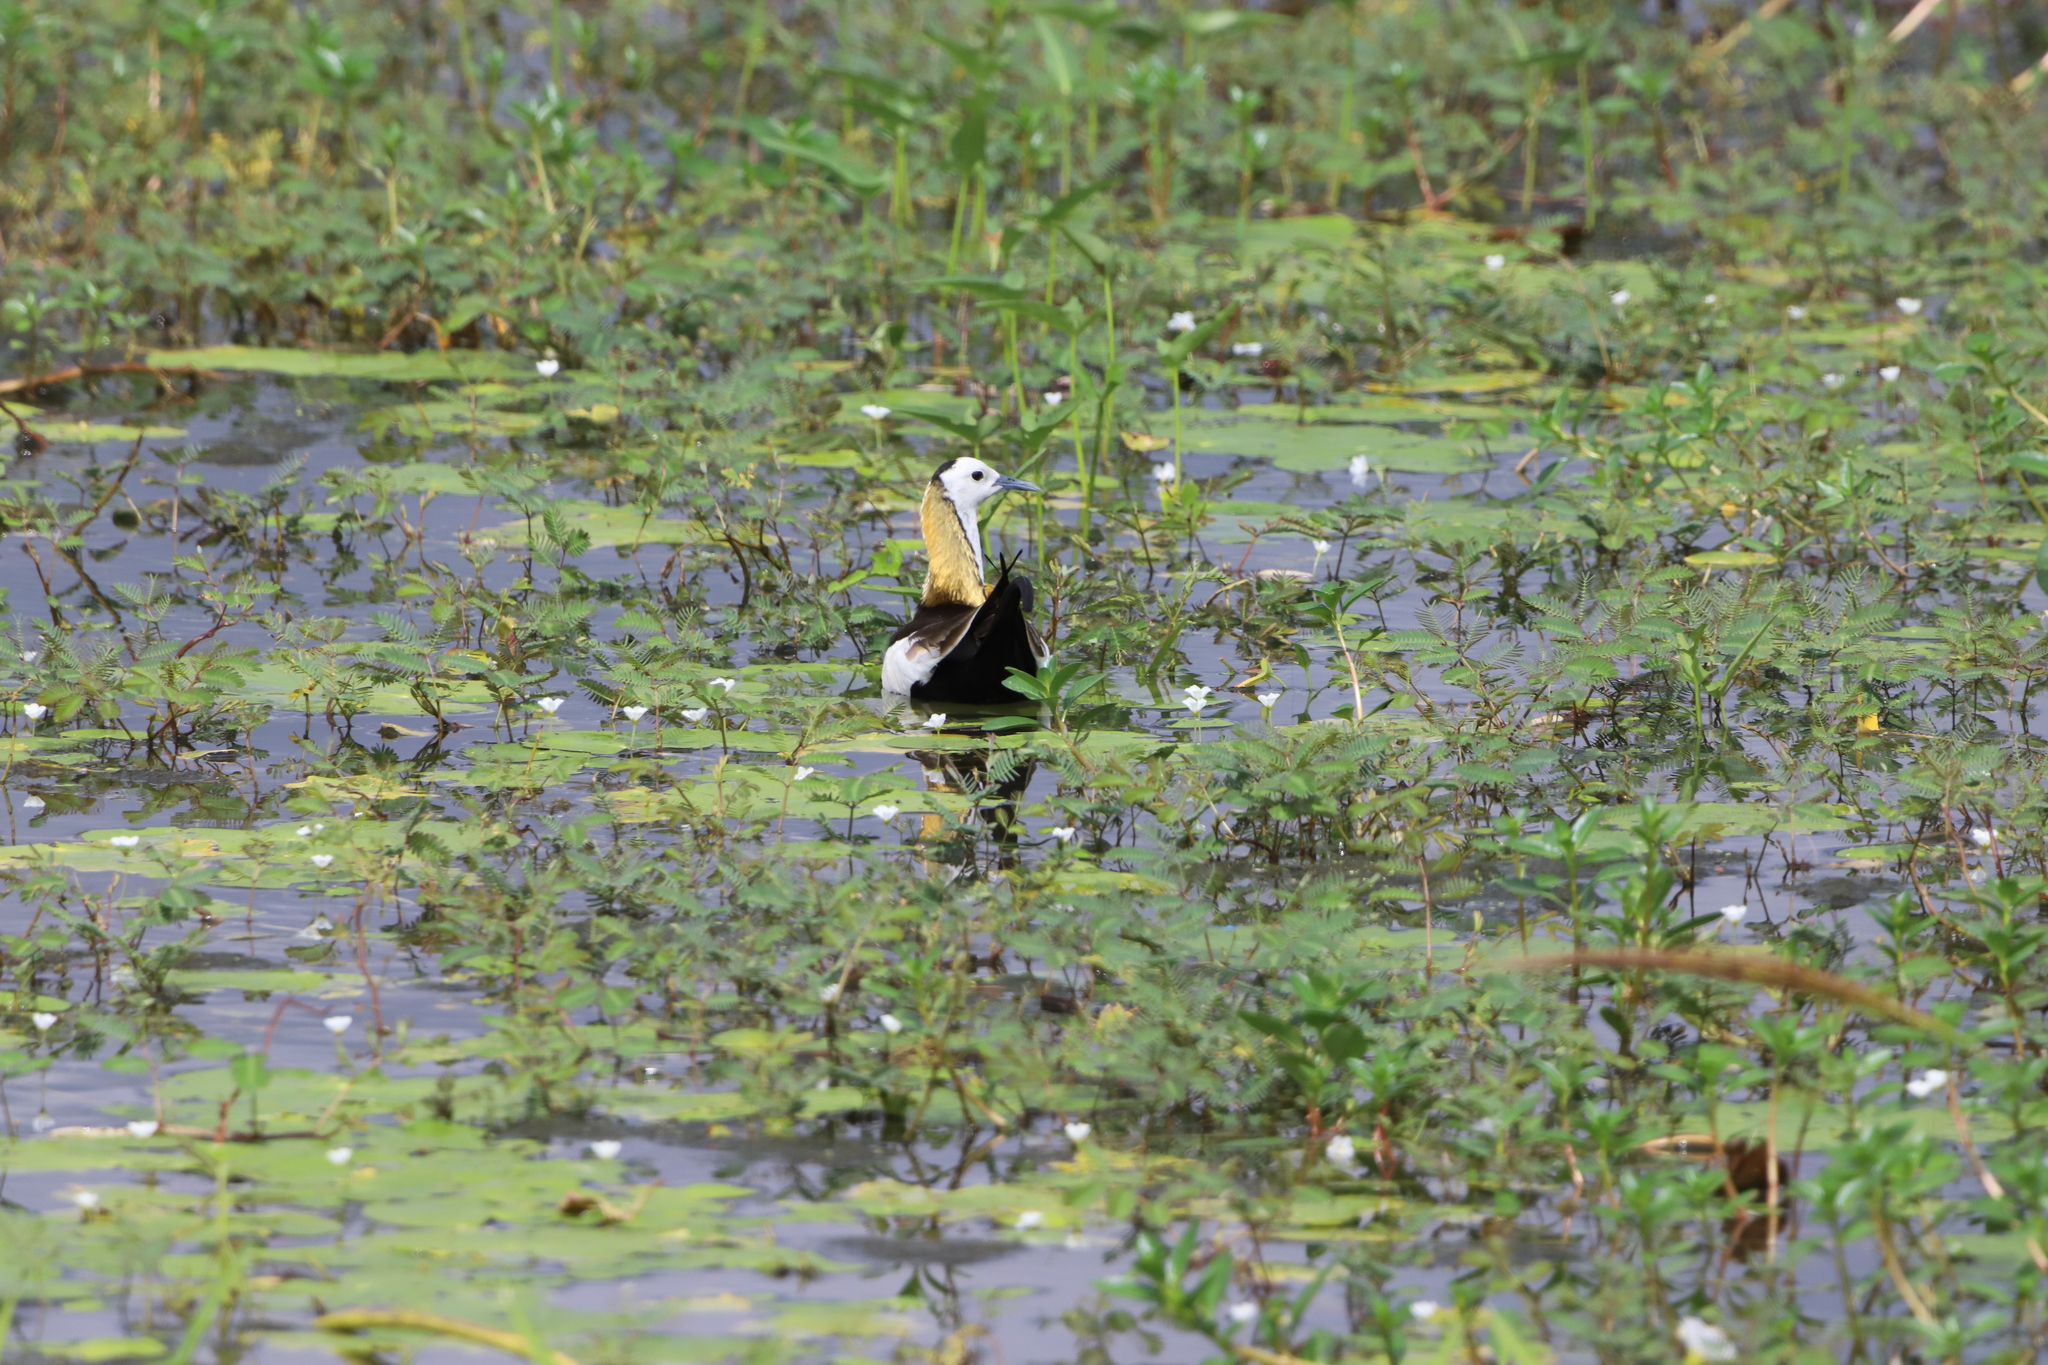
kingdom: Animalia
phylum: Chordata
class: Aves
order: Charadriiformes
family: Jacanidae
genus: Hydrophasianus
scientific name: Hydrophasianus chirurgus
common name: Pheasant-tailed jacana
